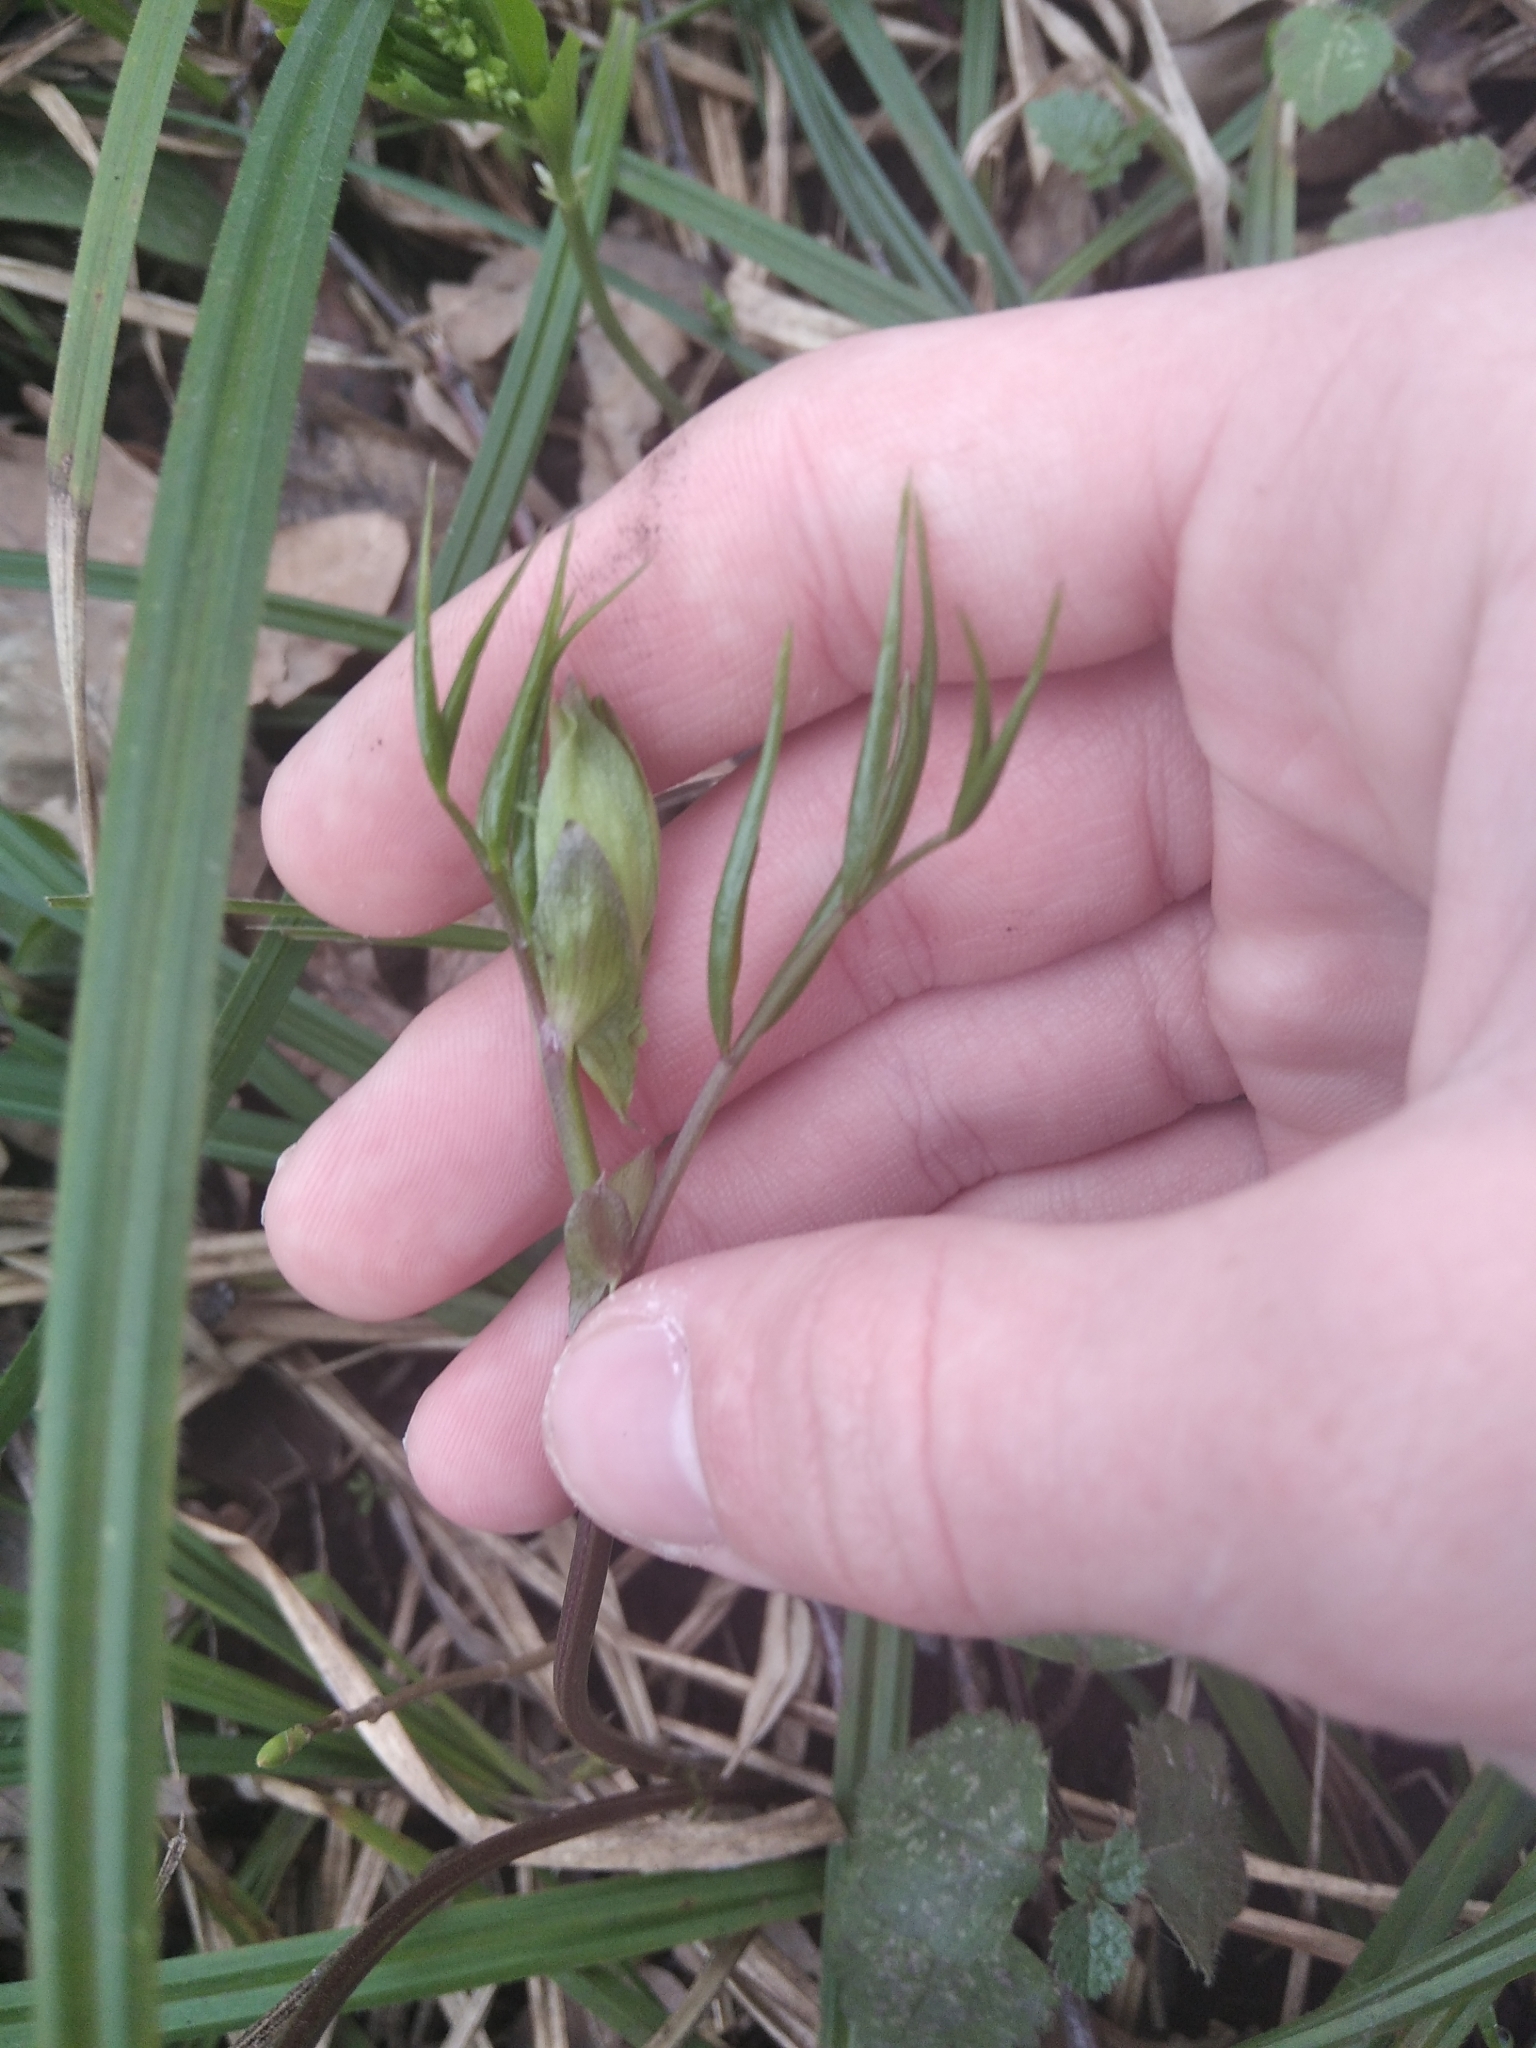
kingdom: Plantae
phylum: Tracheophyta
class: Magnoliopsida
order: Fabales
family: Fabaceae
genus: Lathyrus
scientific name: Lathyrus vernus
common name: Spring pea
